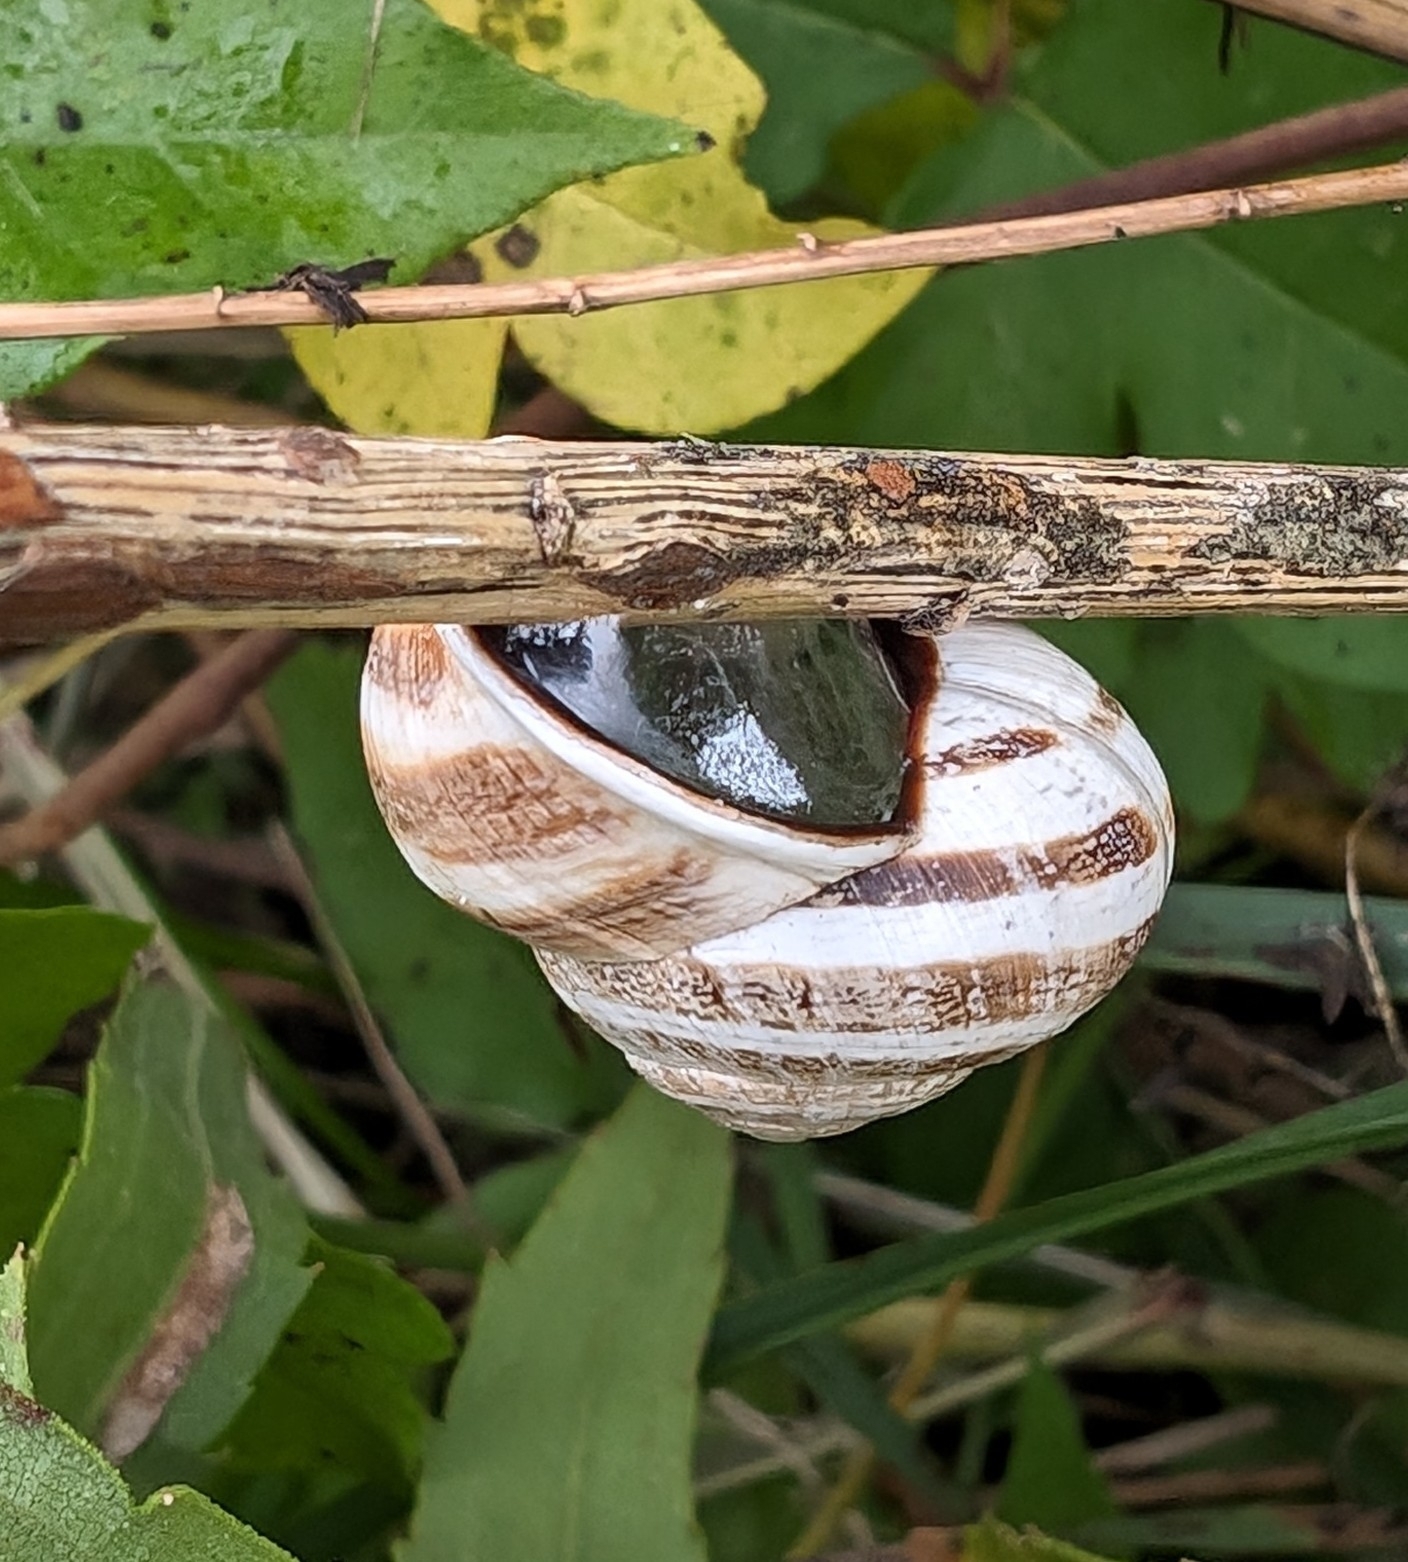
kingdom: Animalia
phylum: Mollusca
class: Gastropoda
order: Stylommatophora
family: Helicidae
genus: Otala
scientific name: Otala lactea
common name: Milk snail
